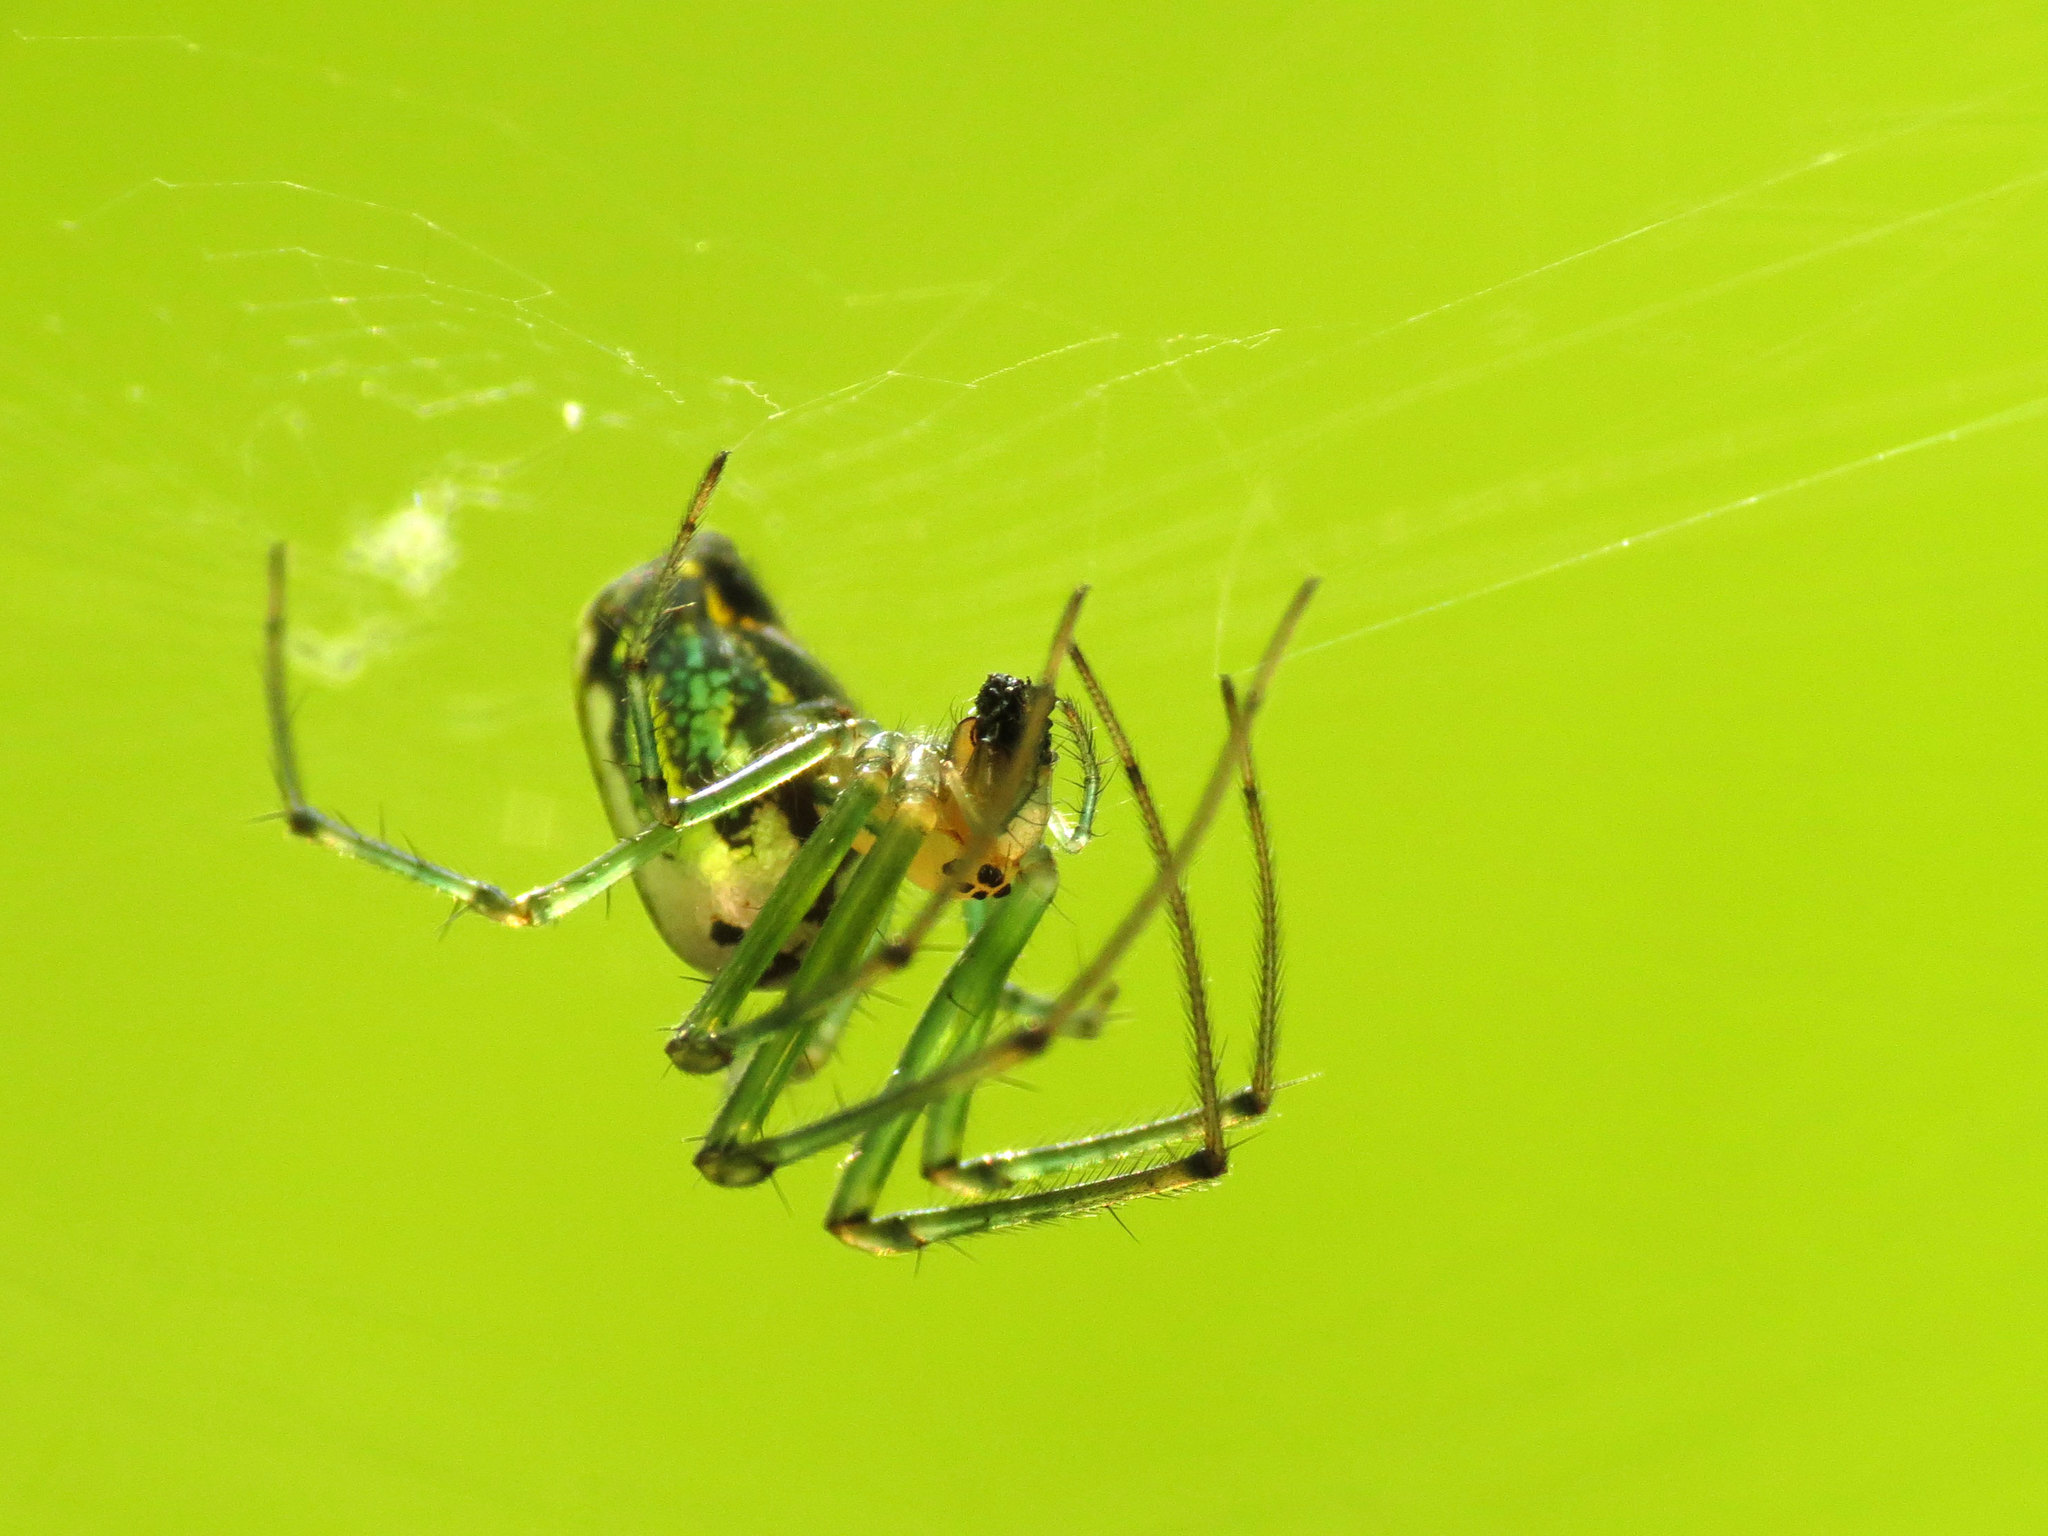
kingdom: Animalia
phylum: Arthropoda
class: Arachnida
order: Araneae
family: Tetragnathidae
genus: Leucauge
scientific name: Leucauge venusta
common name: Longjawed orb weavers
